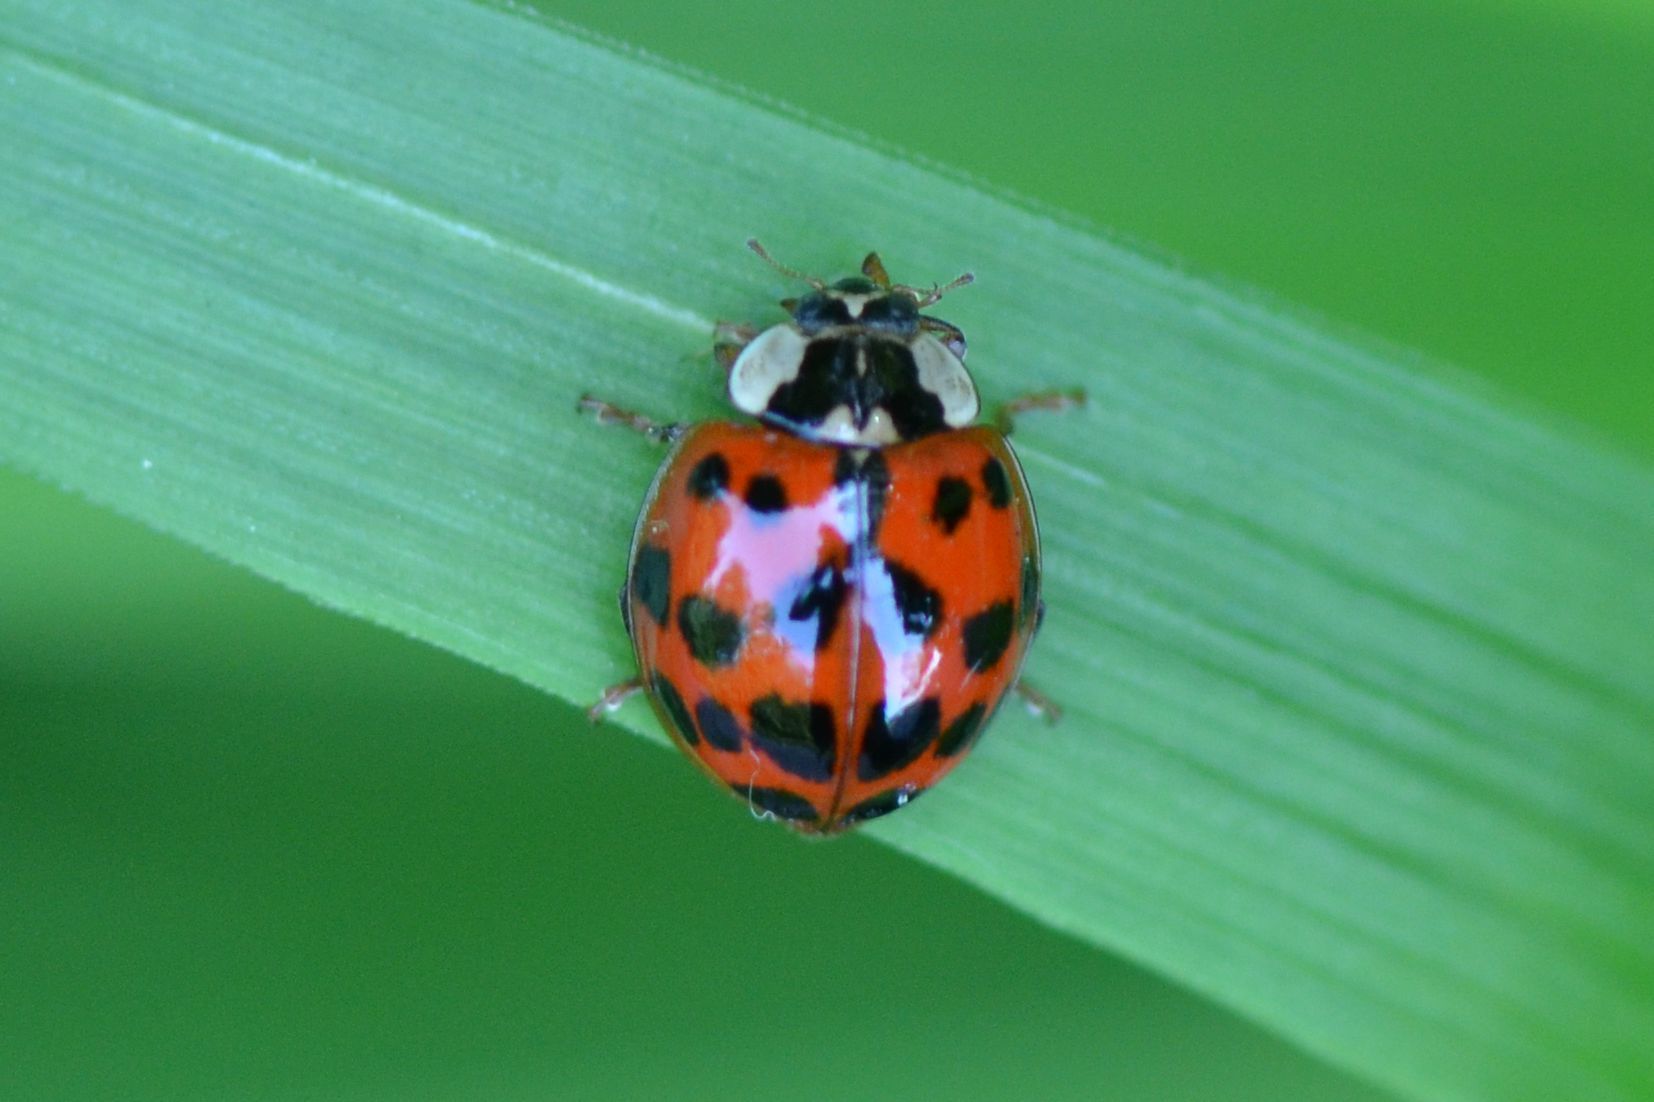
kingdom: Animalia
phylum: Arthropoda
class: Insecta
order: Coleoptera
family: Coccinellidae
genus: Harmonia
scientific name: Harmonia axyridis
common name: Harlequin ladybird
